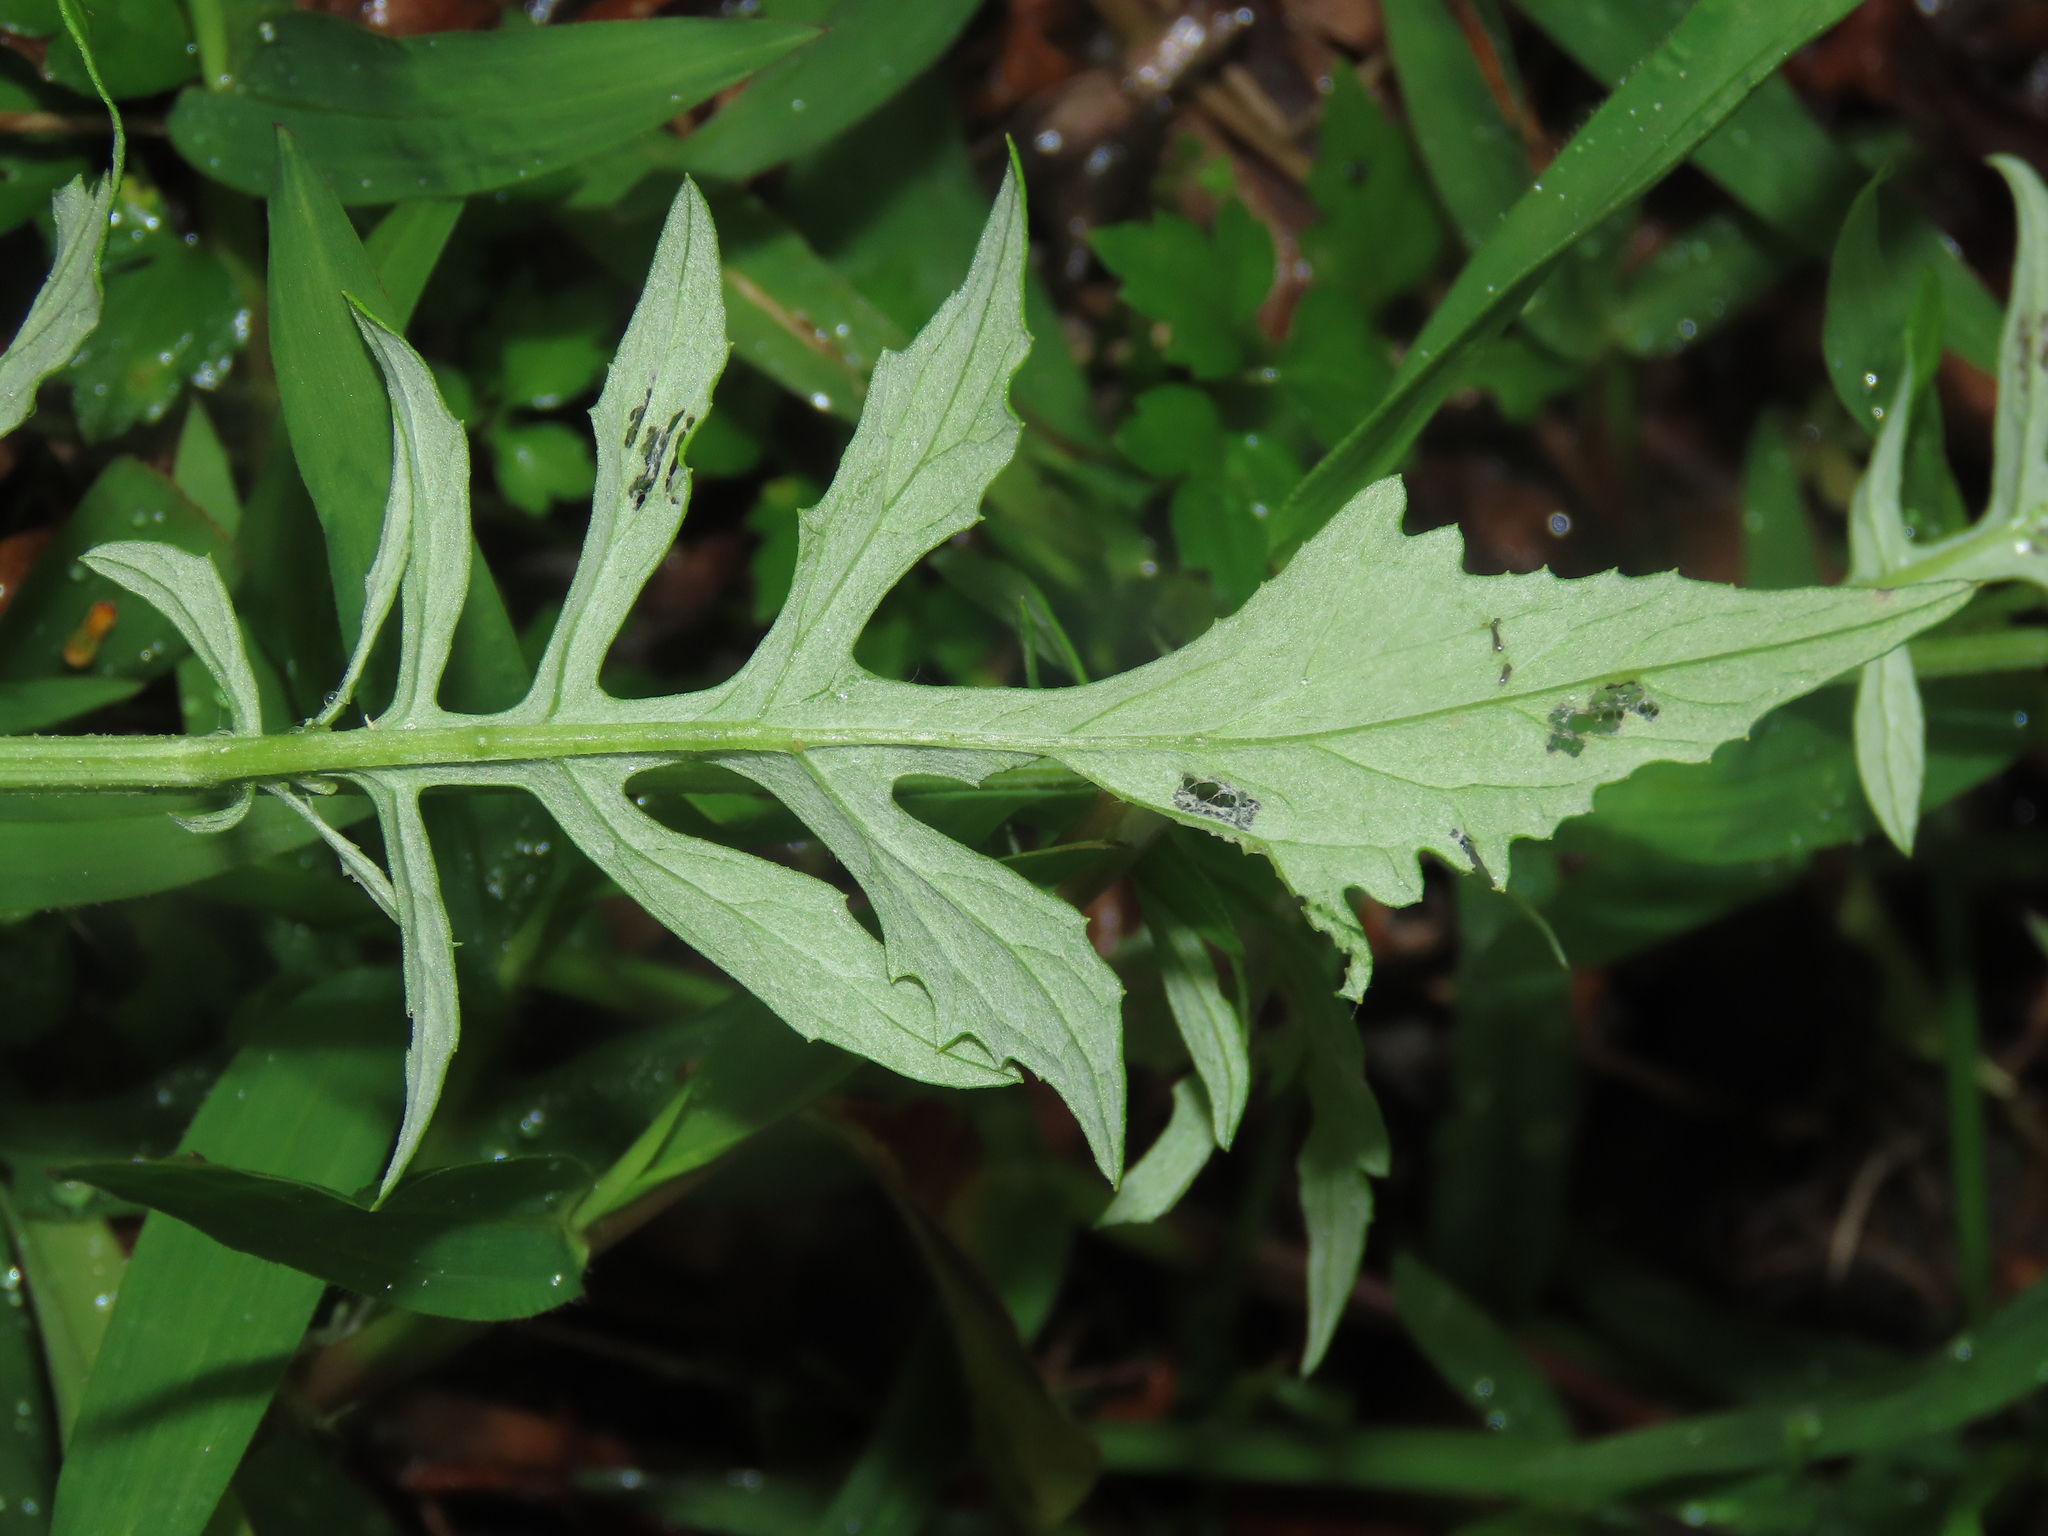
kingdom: Plantae
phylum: Tracheophyta
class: Magnoliopsida
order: Asterales
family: Asteraceae
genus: Saussurea
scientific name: Saussurea lyrata
